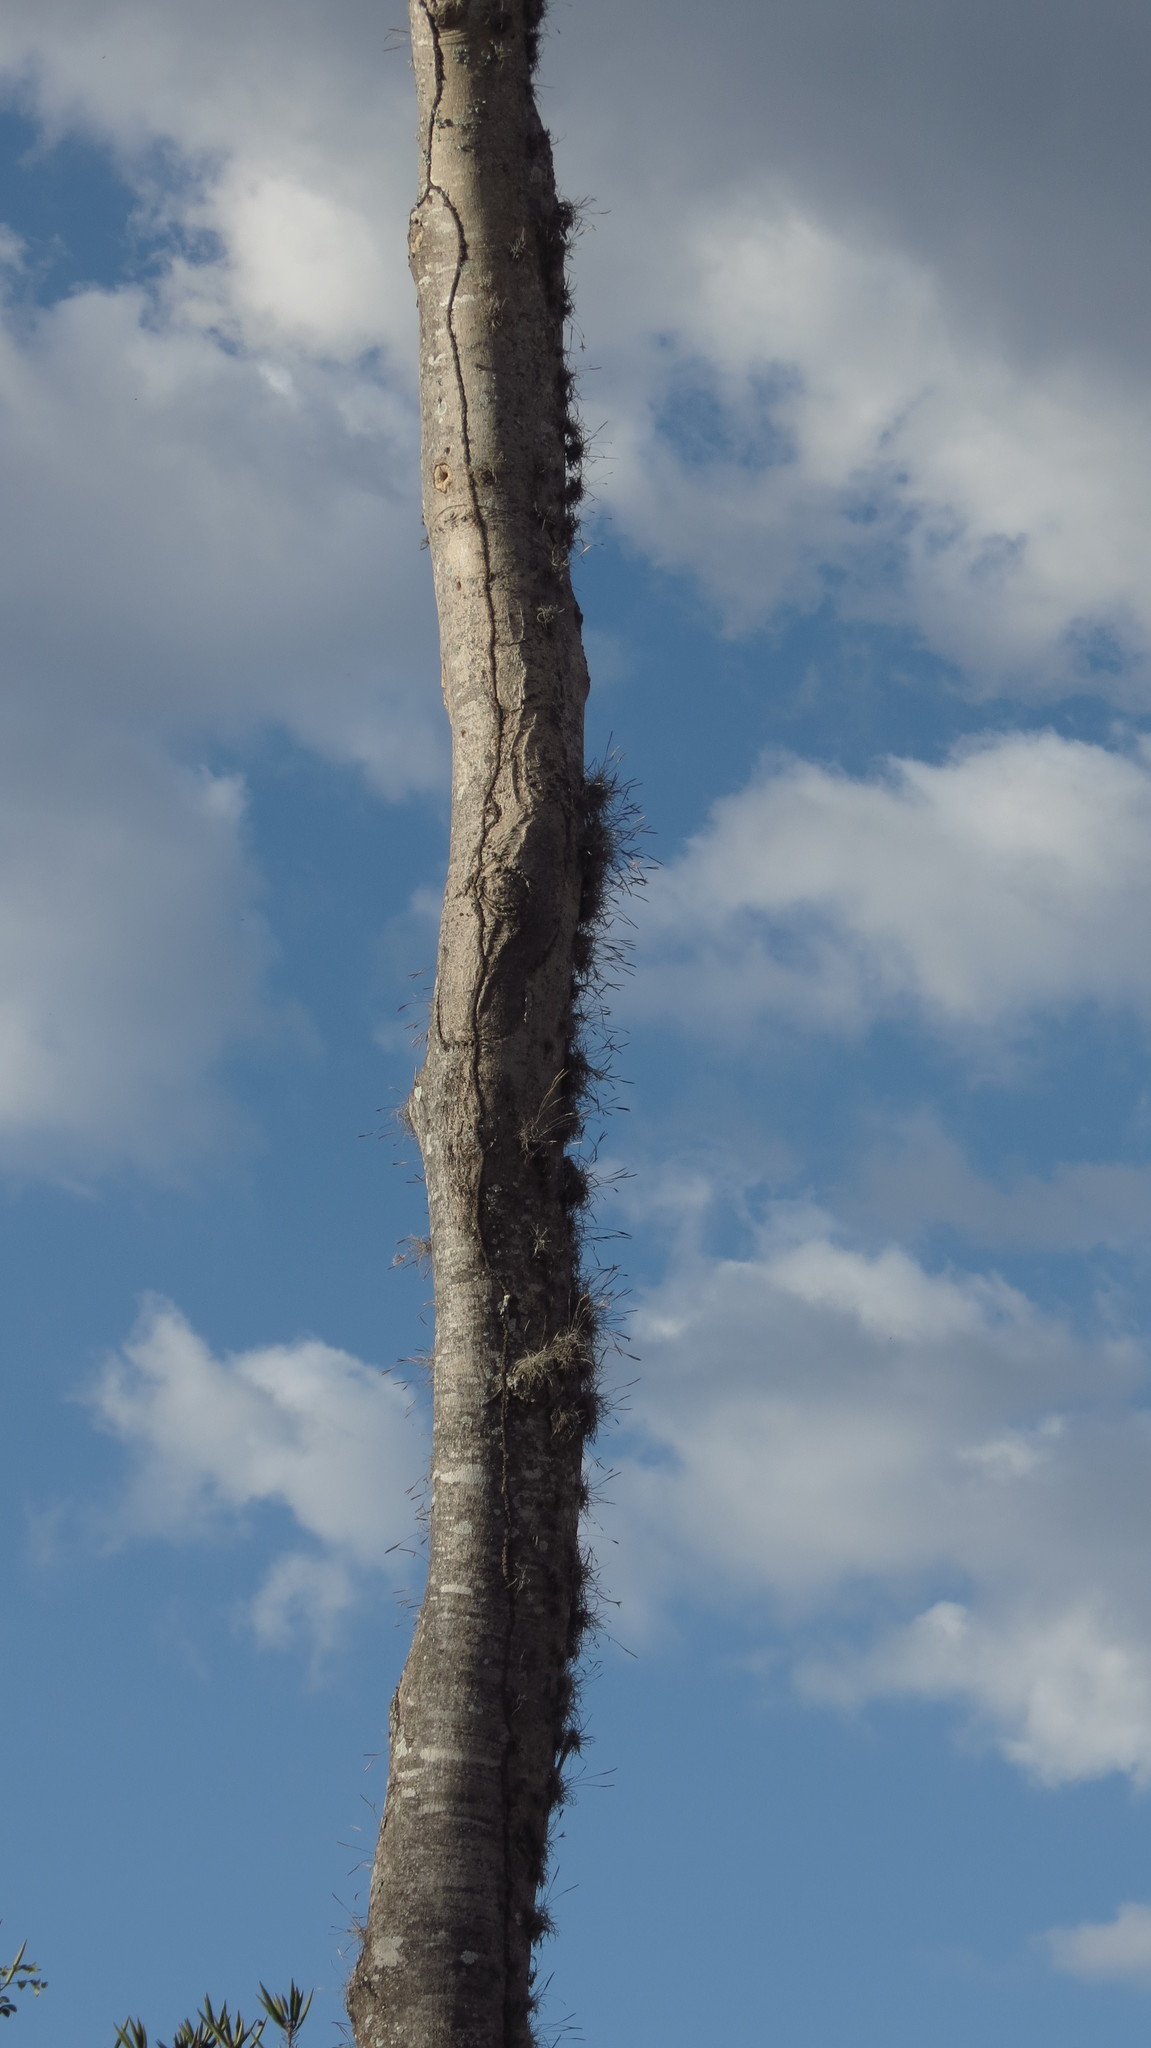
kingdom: Plantae
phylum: Tracheophyta
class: Magnoliopsida
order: Lamiales
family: Bignoniaceae
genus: Roseodendron
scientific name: Roseodendron donnell-smithii
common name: White-mahogany
